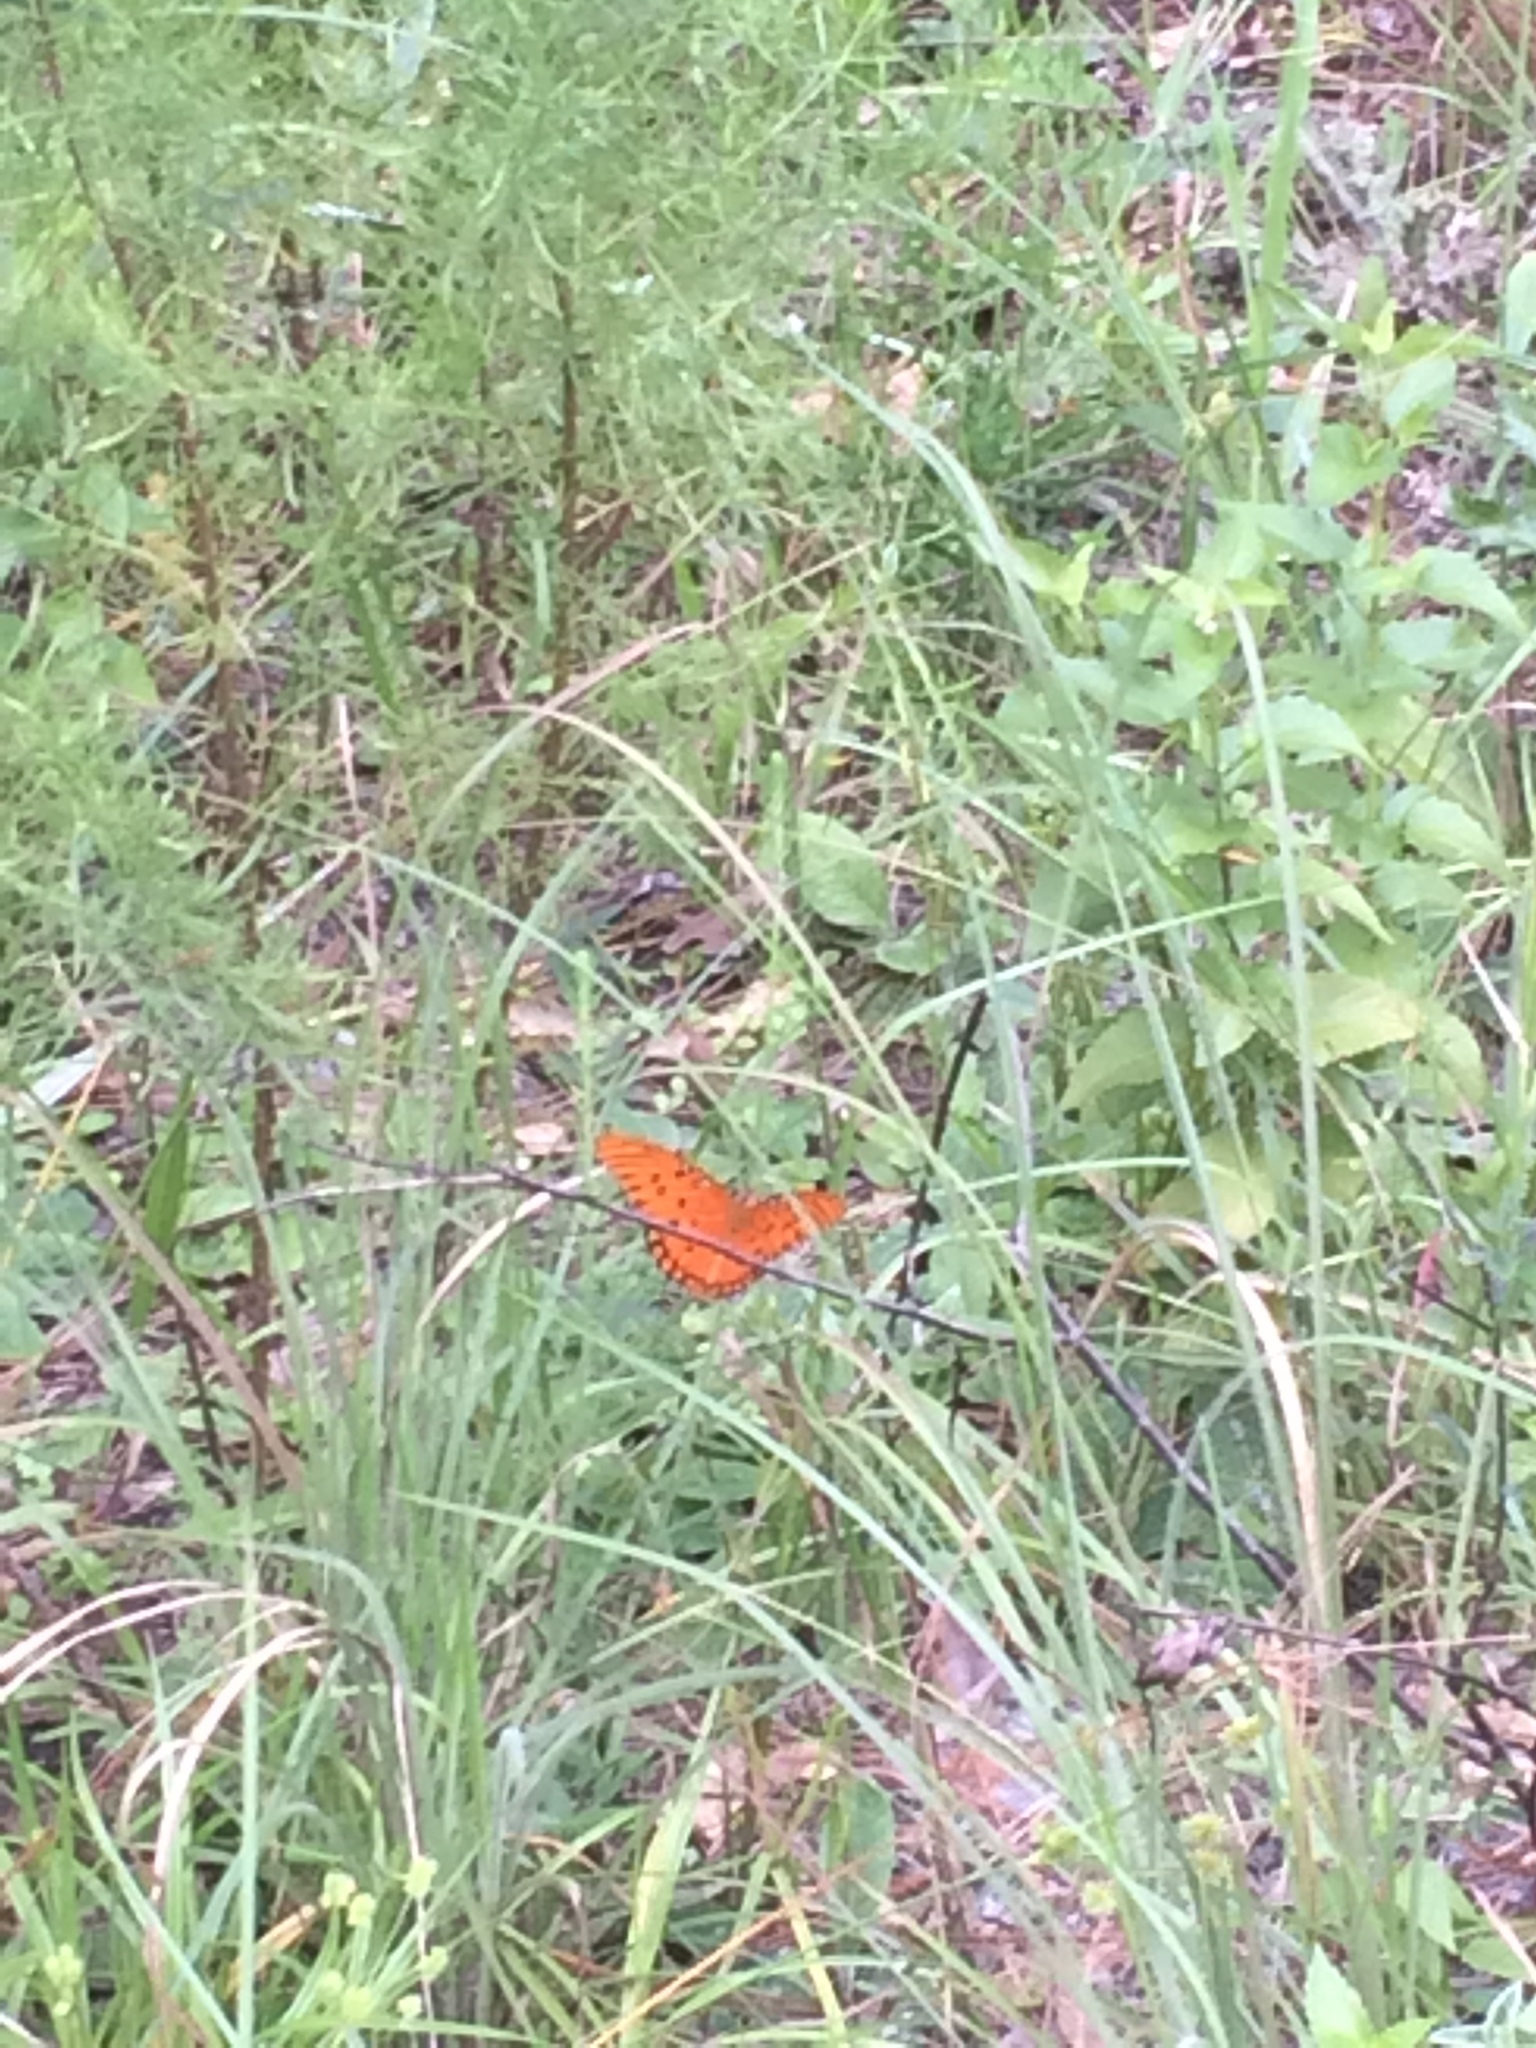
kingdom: Animalia
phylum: Arthropoda
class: Insecta
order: Lepidoptera
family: Nymphalidae
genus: Dione
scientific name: Dione vanillae
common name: Gulf fritillary
